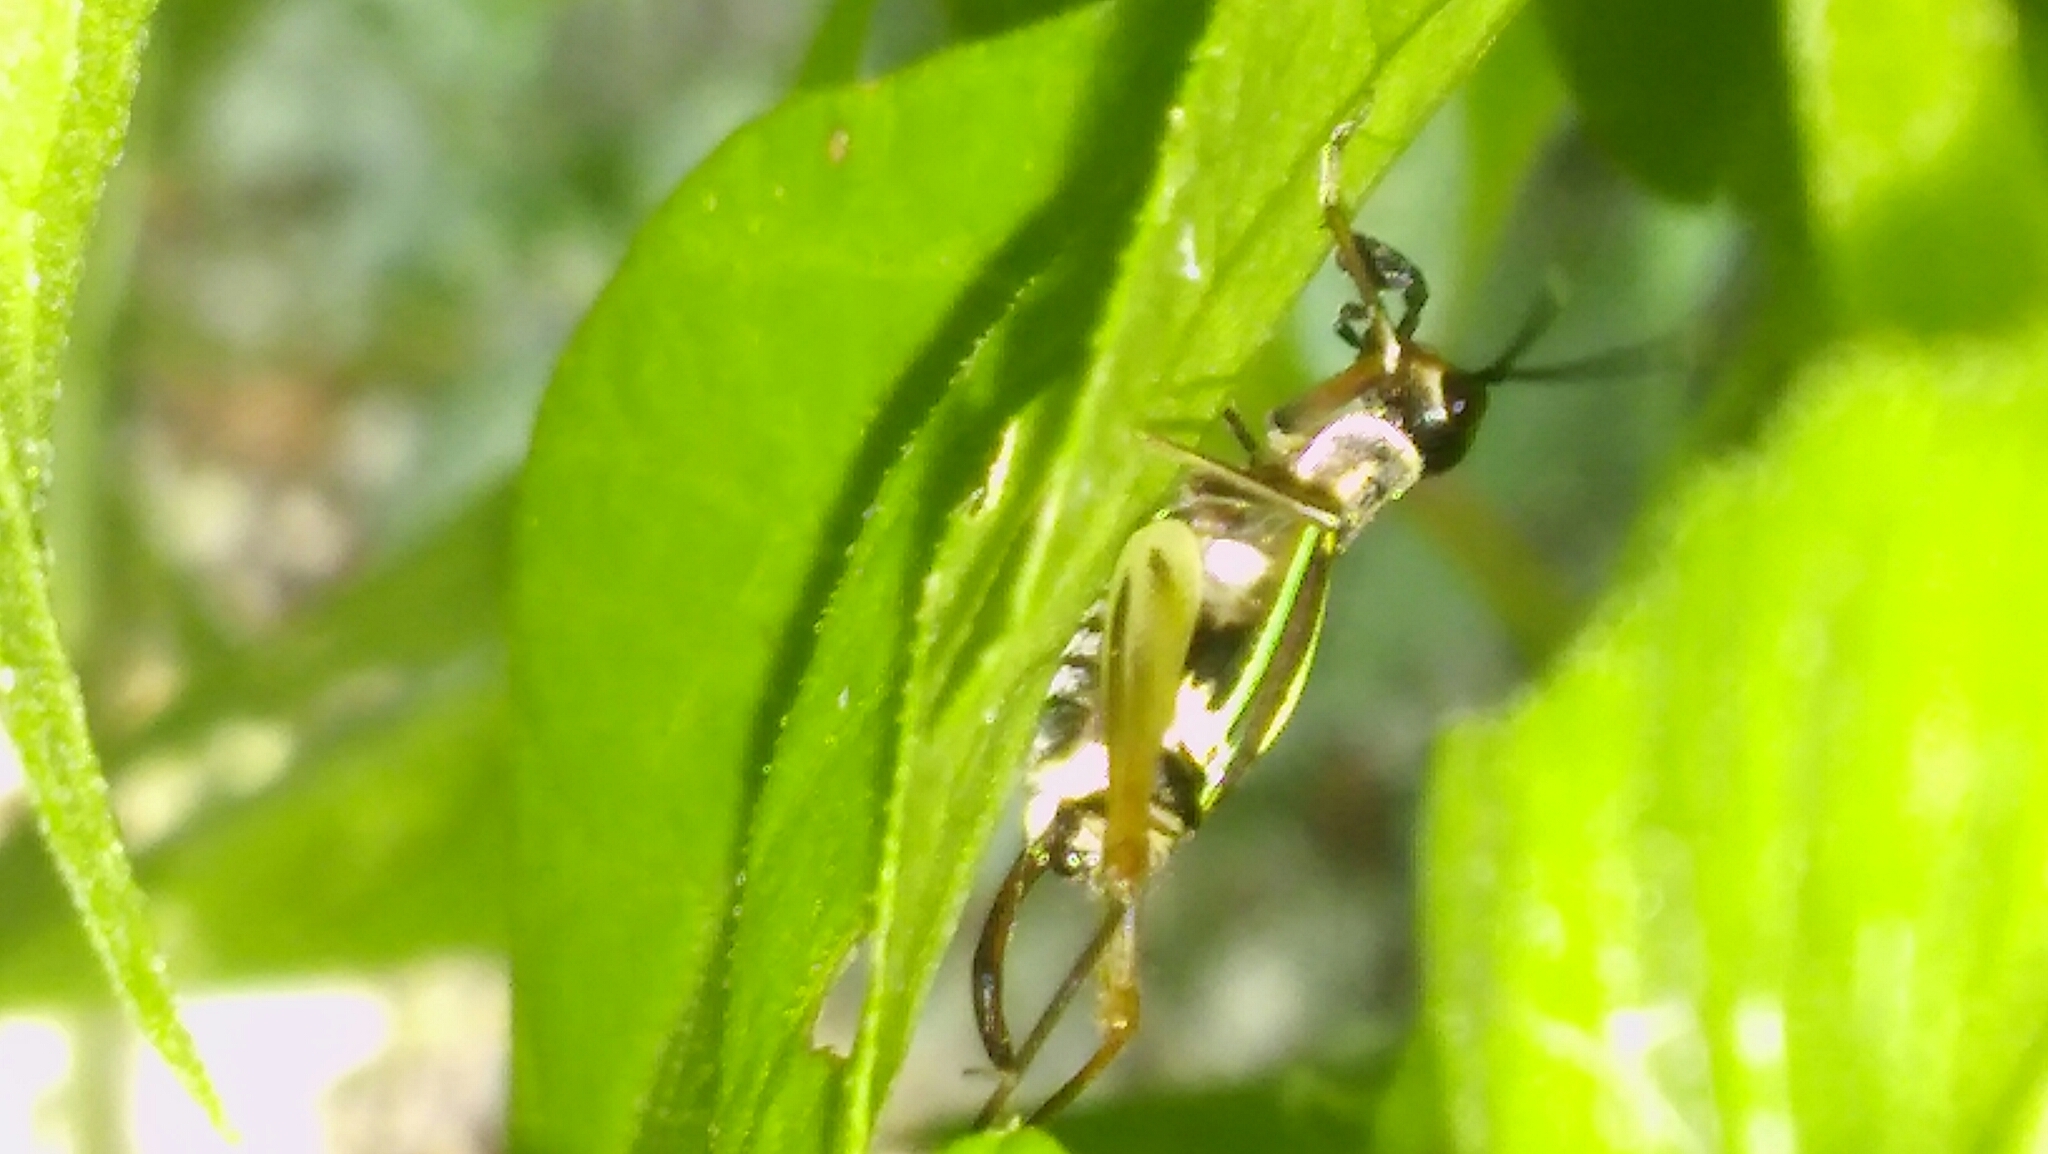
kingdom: Animalia
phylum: Arthropoda
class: Insecta
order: Orthoptera
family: Trigonidiidae
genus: Phylloscyrtus
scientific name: Phylloscyrtus amoenus
